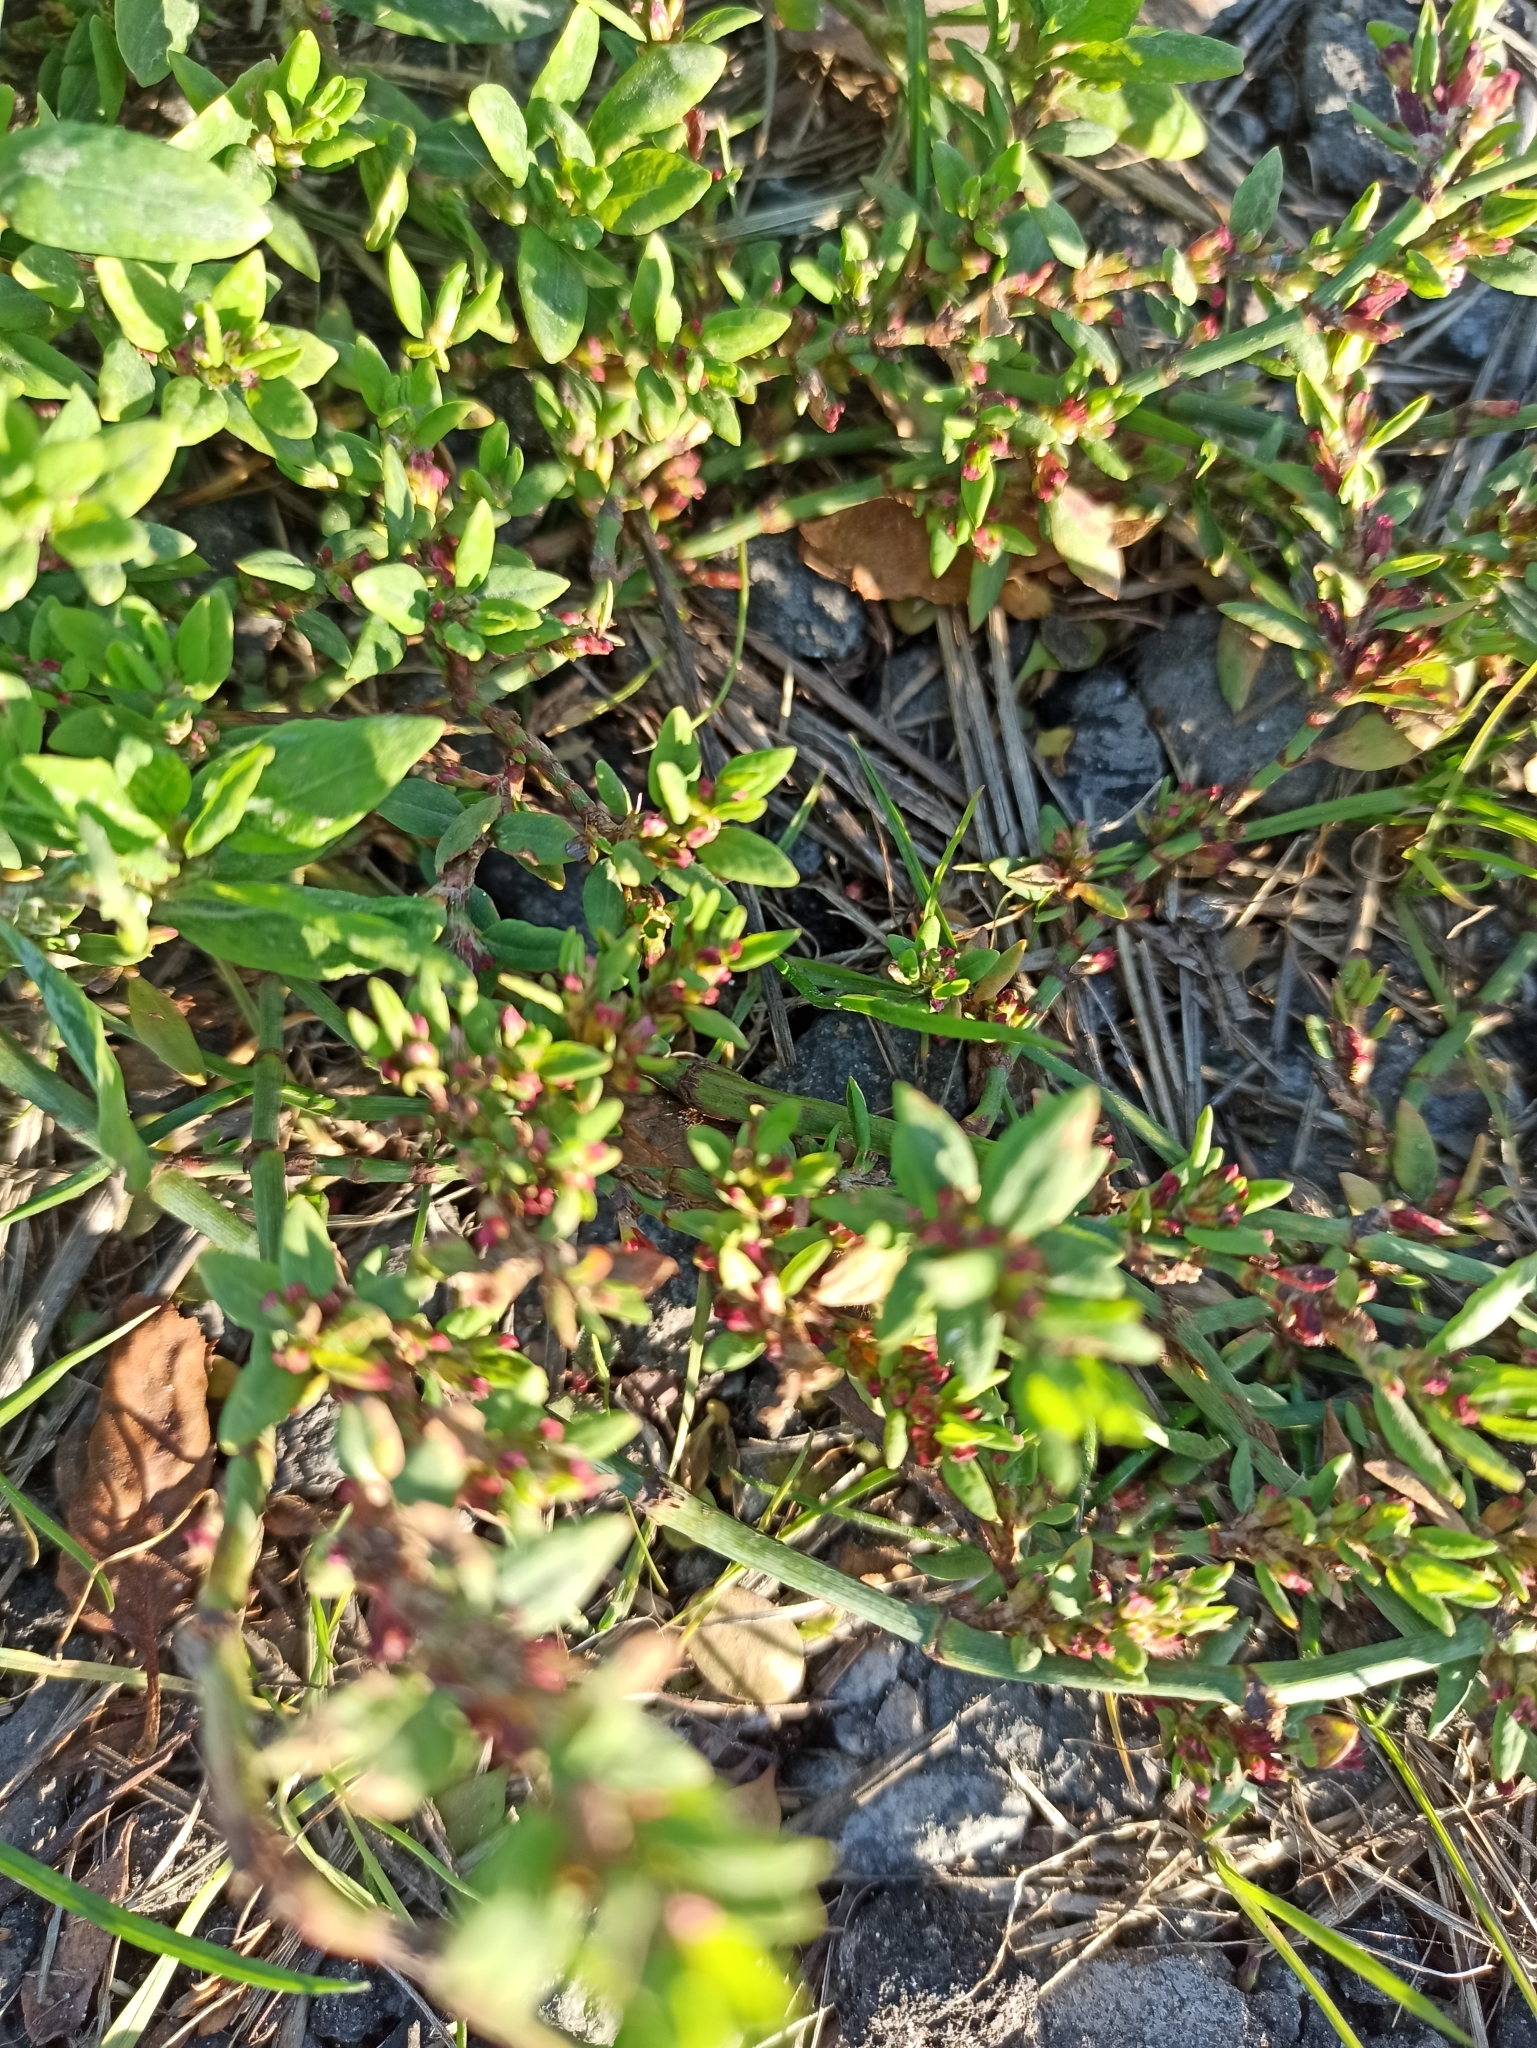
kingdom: Plantae
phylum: Tracheophyta
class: Magnoliopsida
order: Caryophyllales
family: Polygonaceae
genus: Polygonum
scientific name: Polygonum
